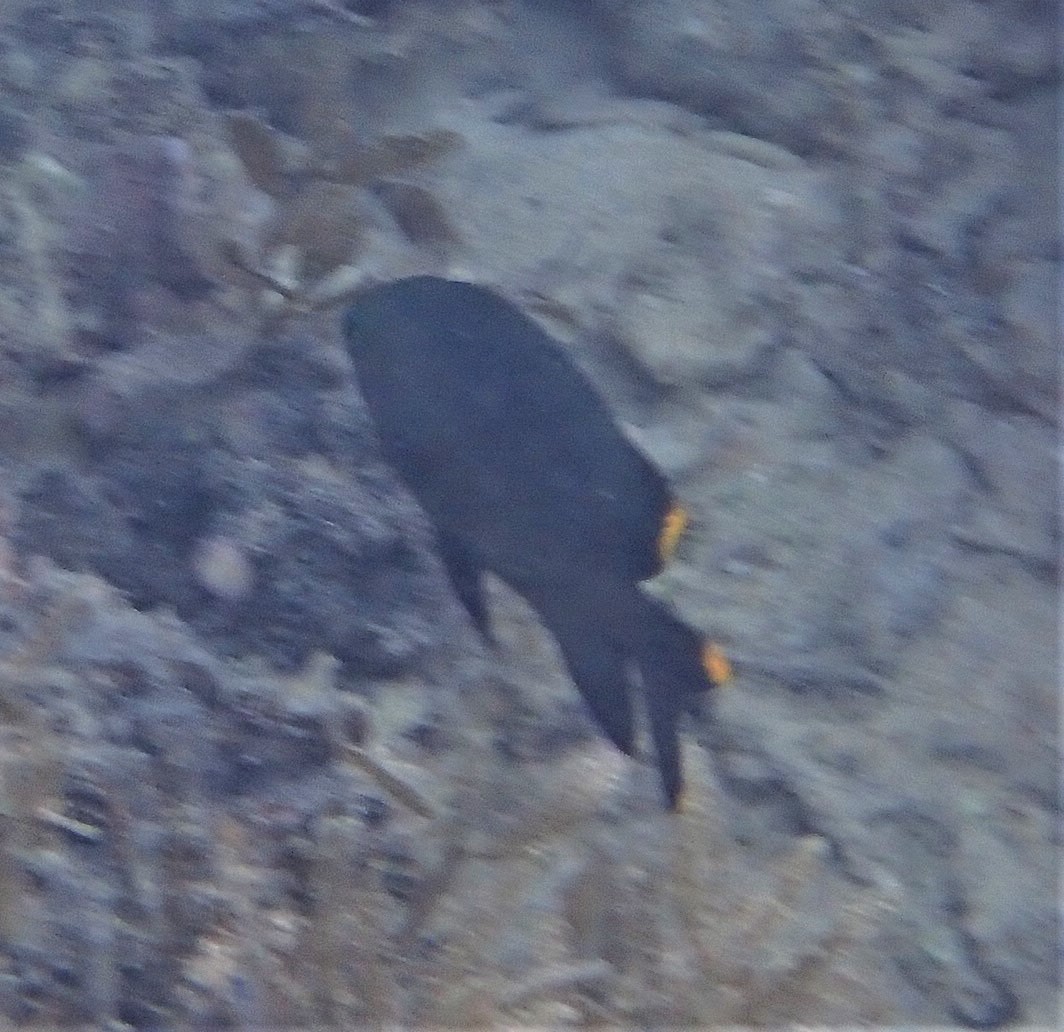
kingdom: Animalia
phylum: Chordata
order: Perciformes
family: Pomacentridae
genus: Stegastes
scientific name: Stegastes pelicieri
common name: Mauritian gregory
